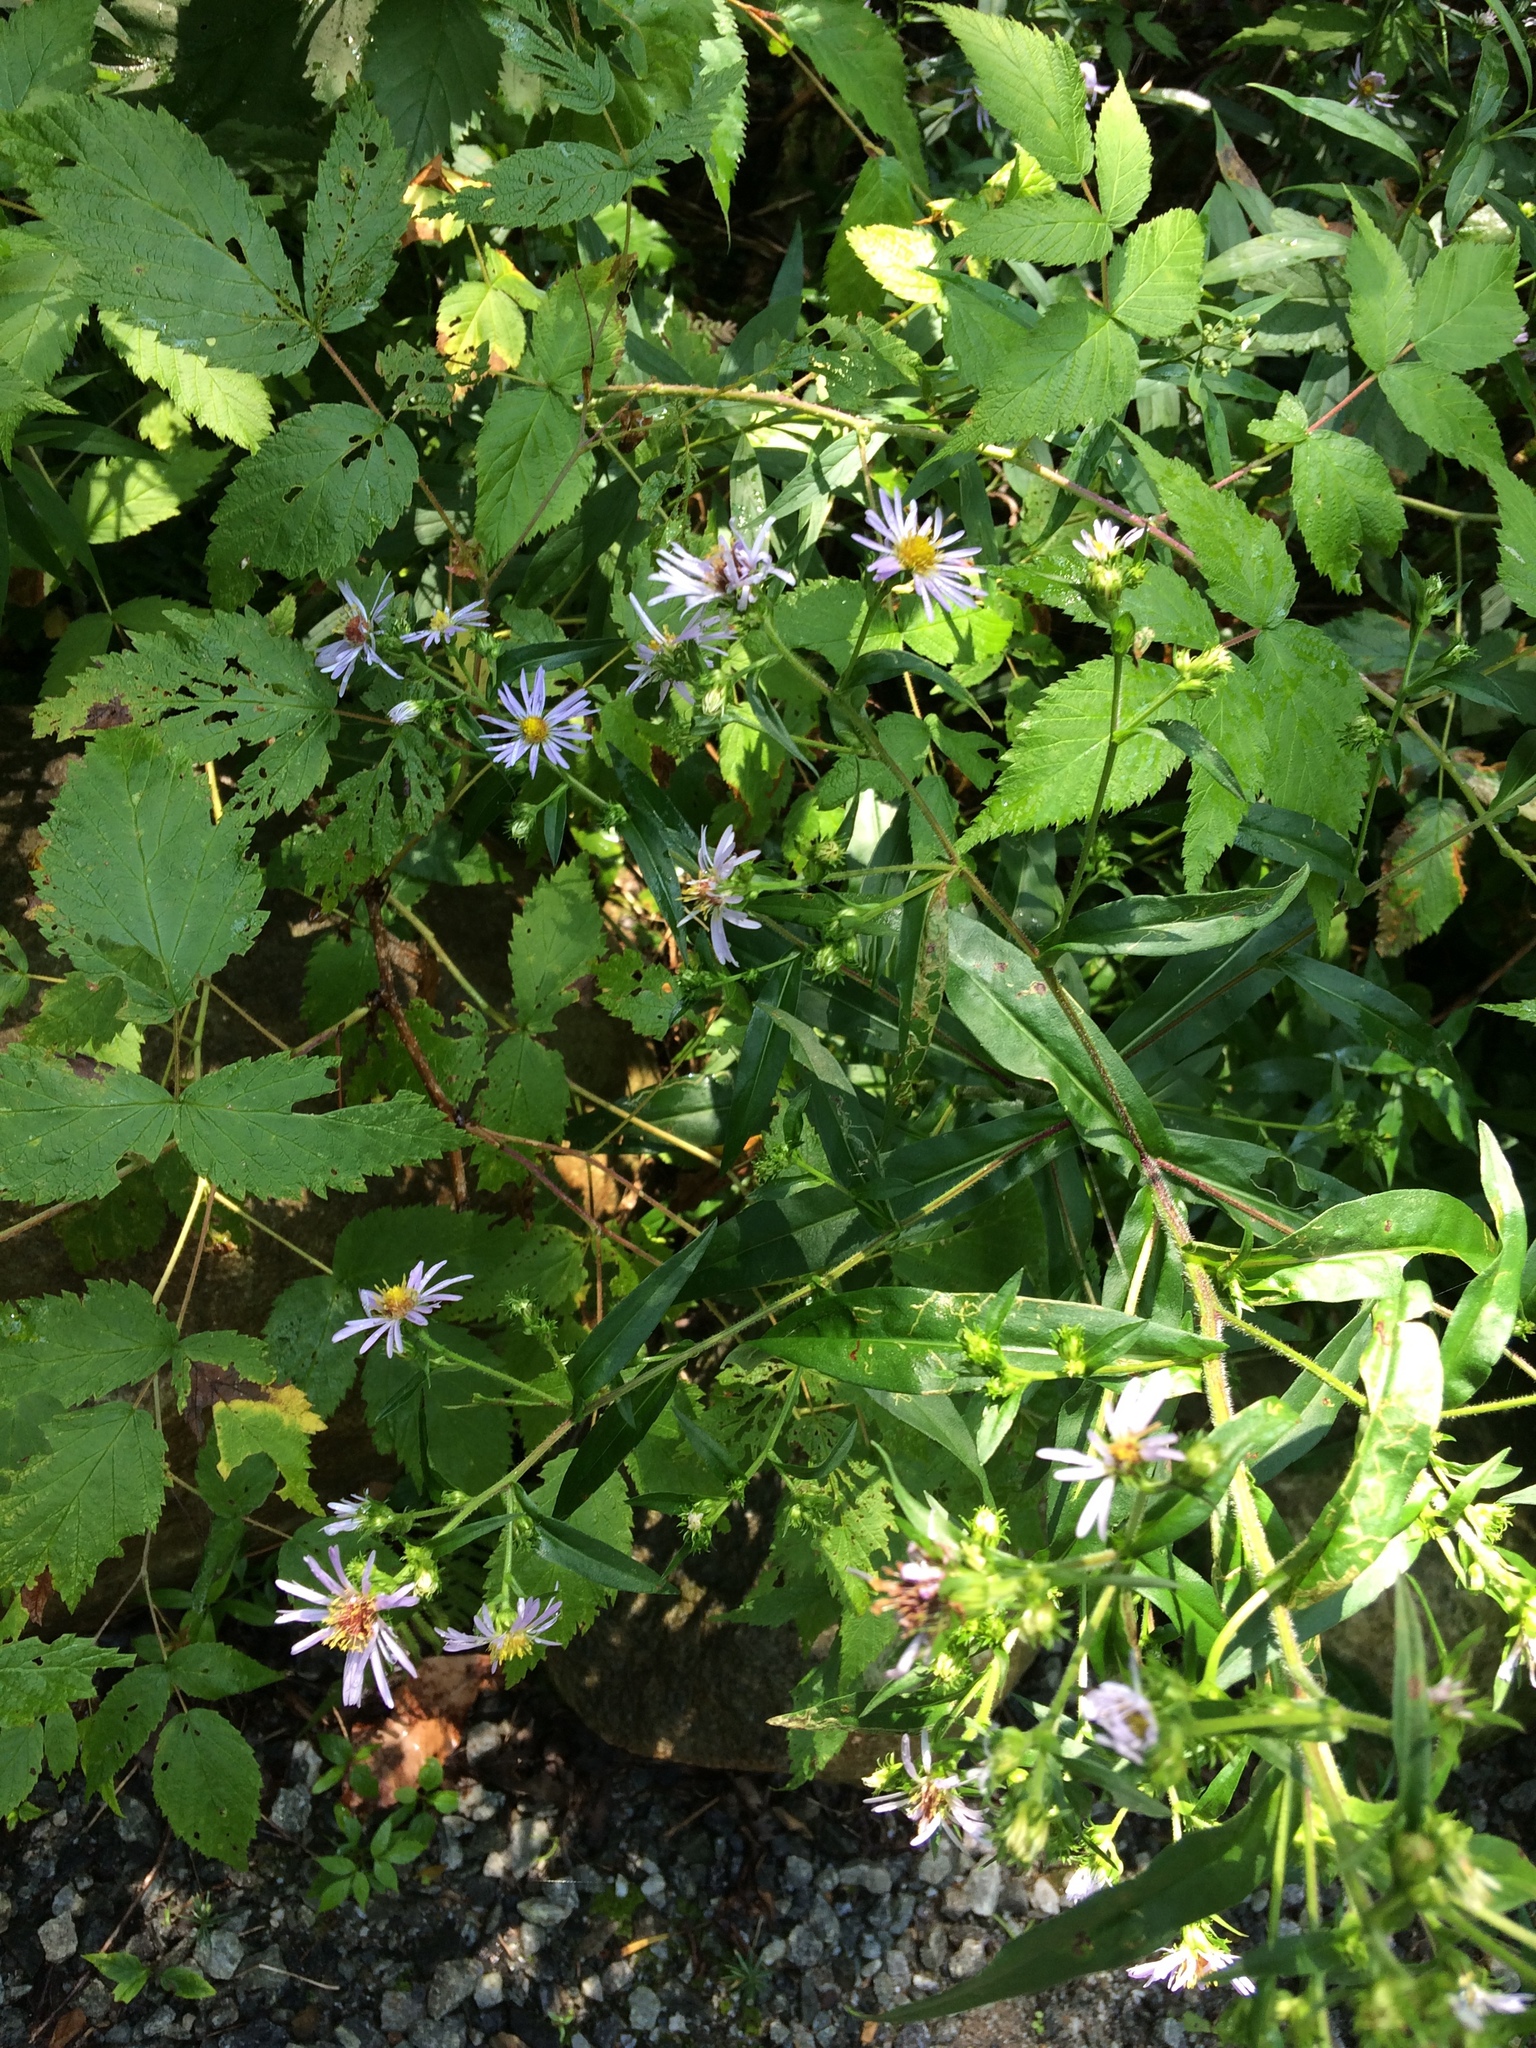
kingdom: Plantae
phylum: Tracheophyta
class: Magnoliopsida
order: Asterales
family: Asteraceae
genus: Symphyotrichum
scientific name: Symphyotrichum puniceum
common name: Bog aster
